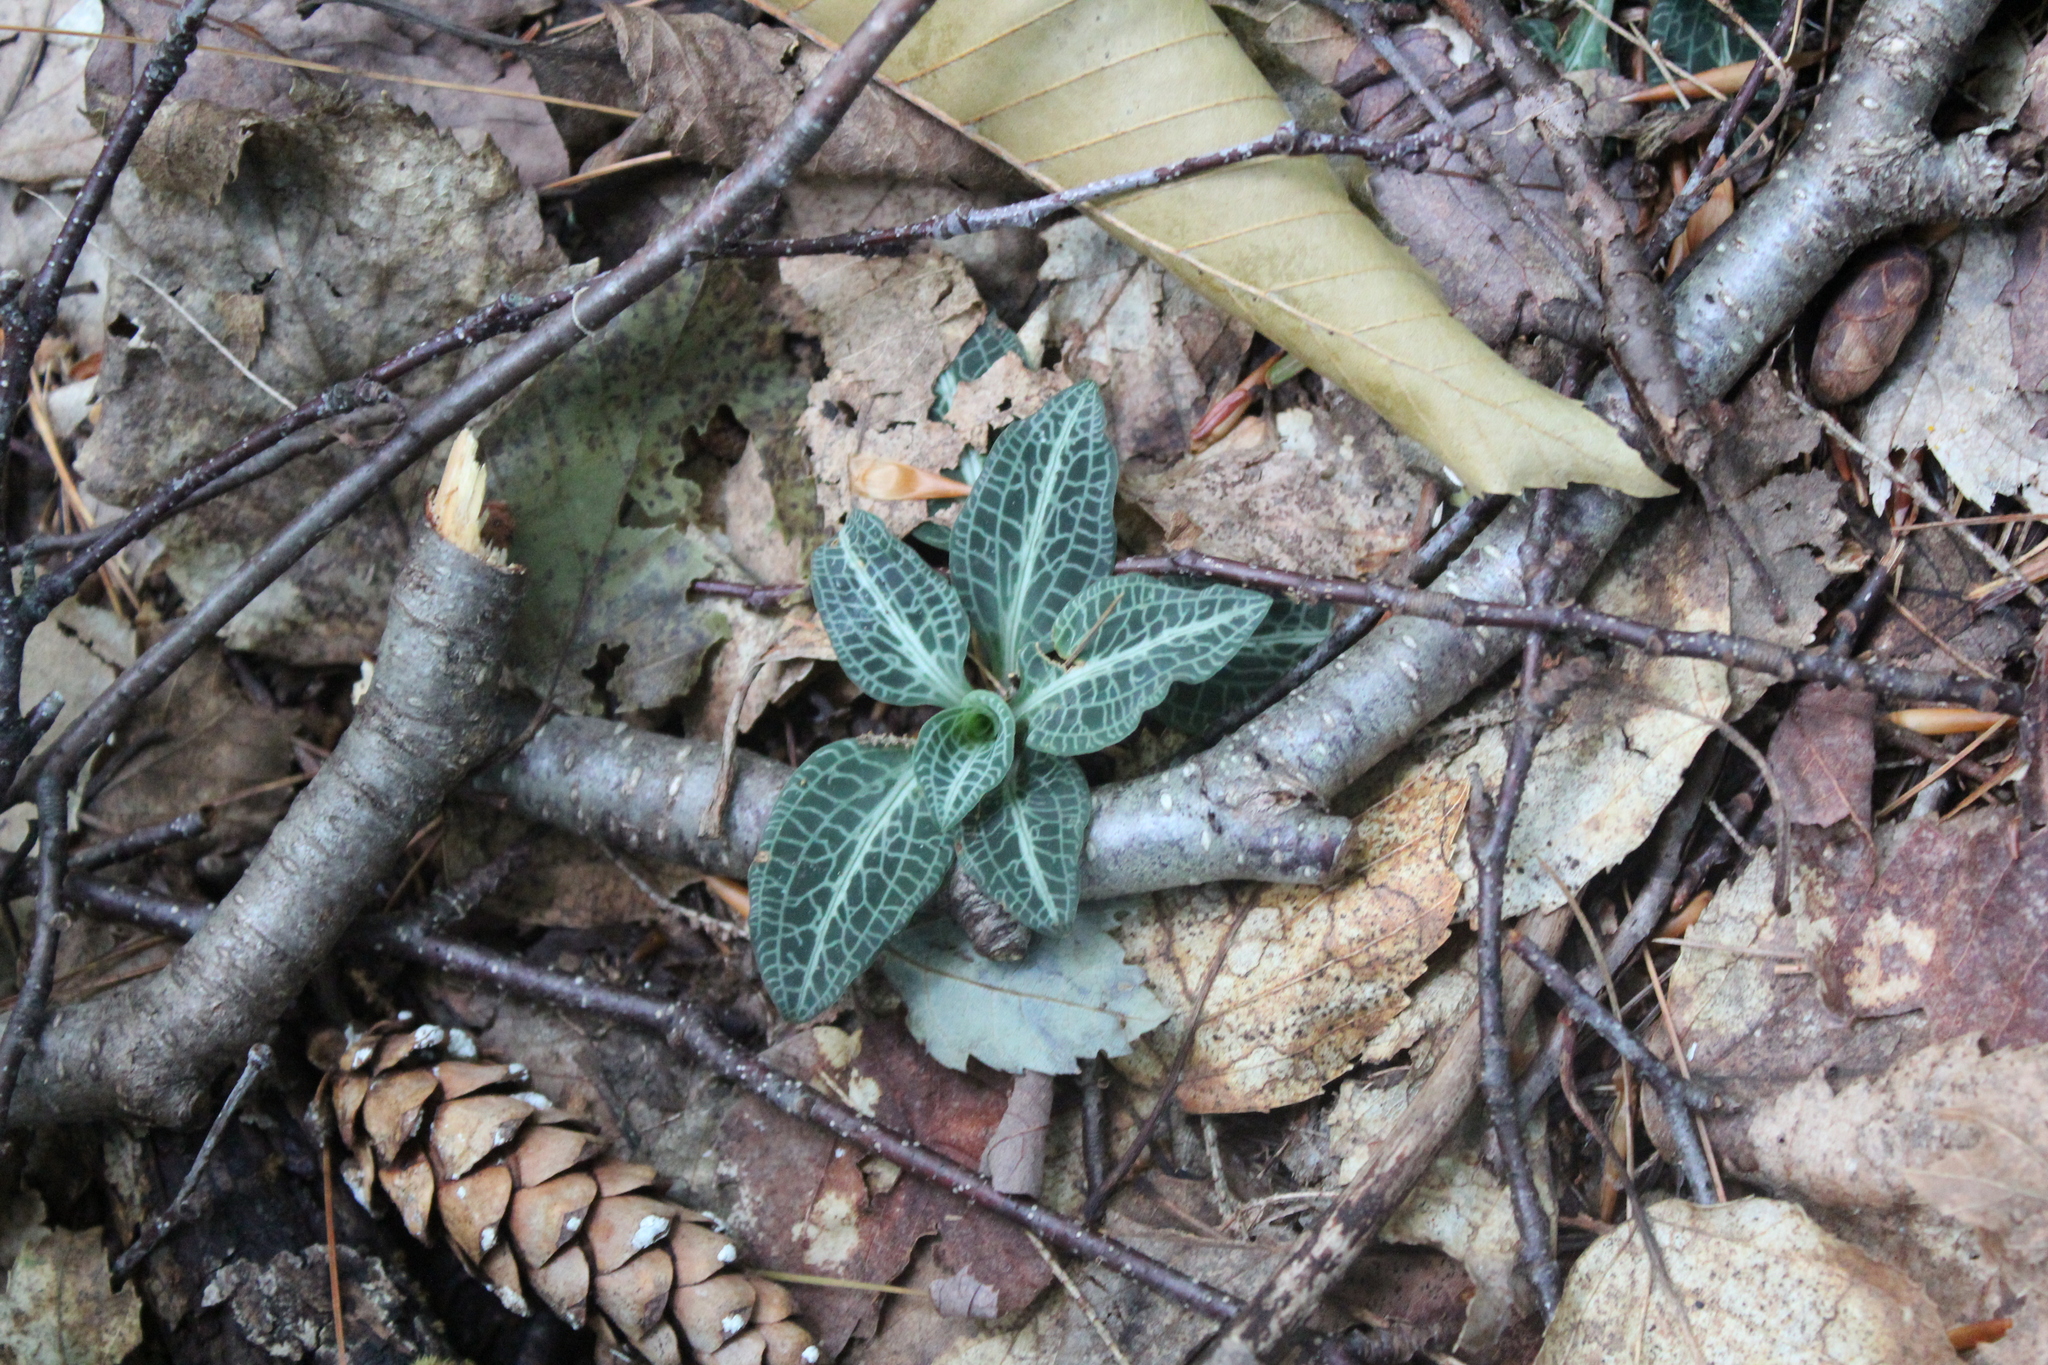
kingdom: Plantae
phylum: Tracheophyta
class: Liliopsida
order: Asparagales
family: Orchidaceae
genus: Goodyera
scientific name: Goodyera pubescens
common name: Downy rattlesnake-plantain
